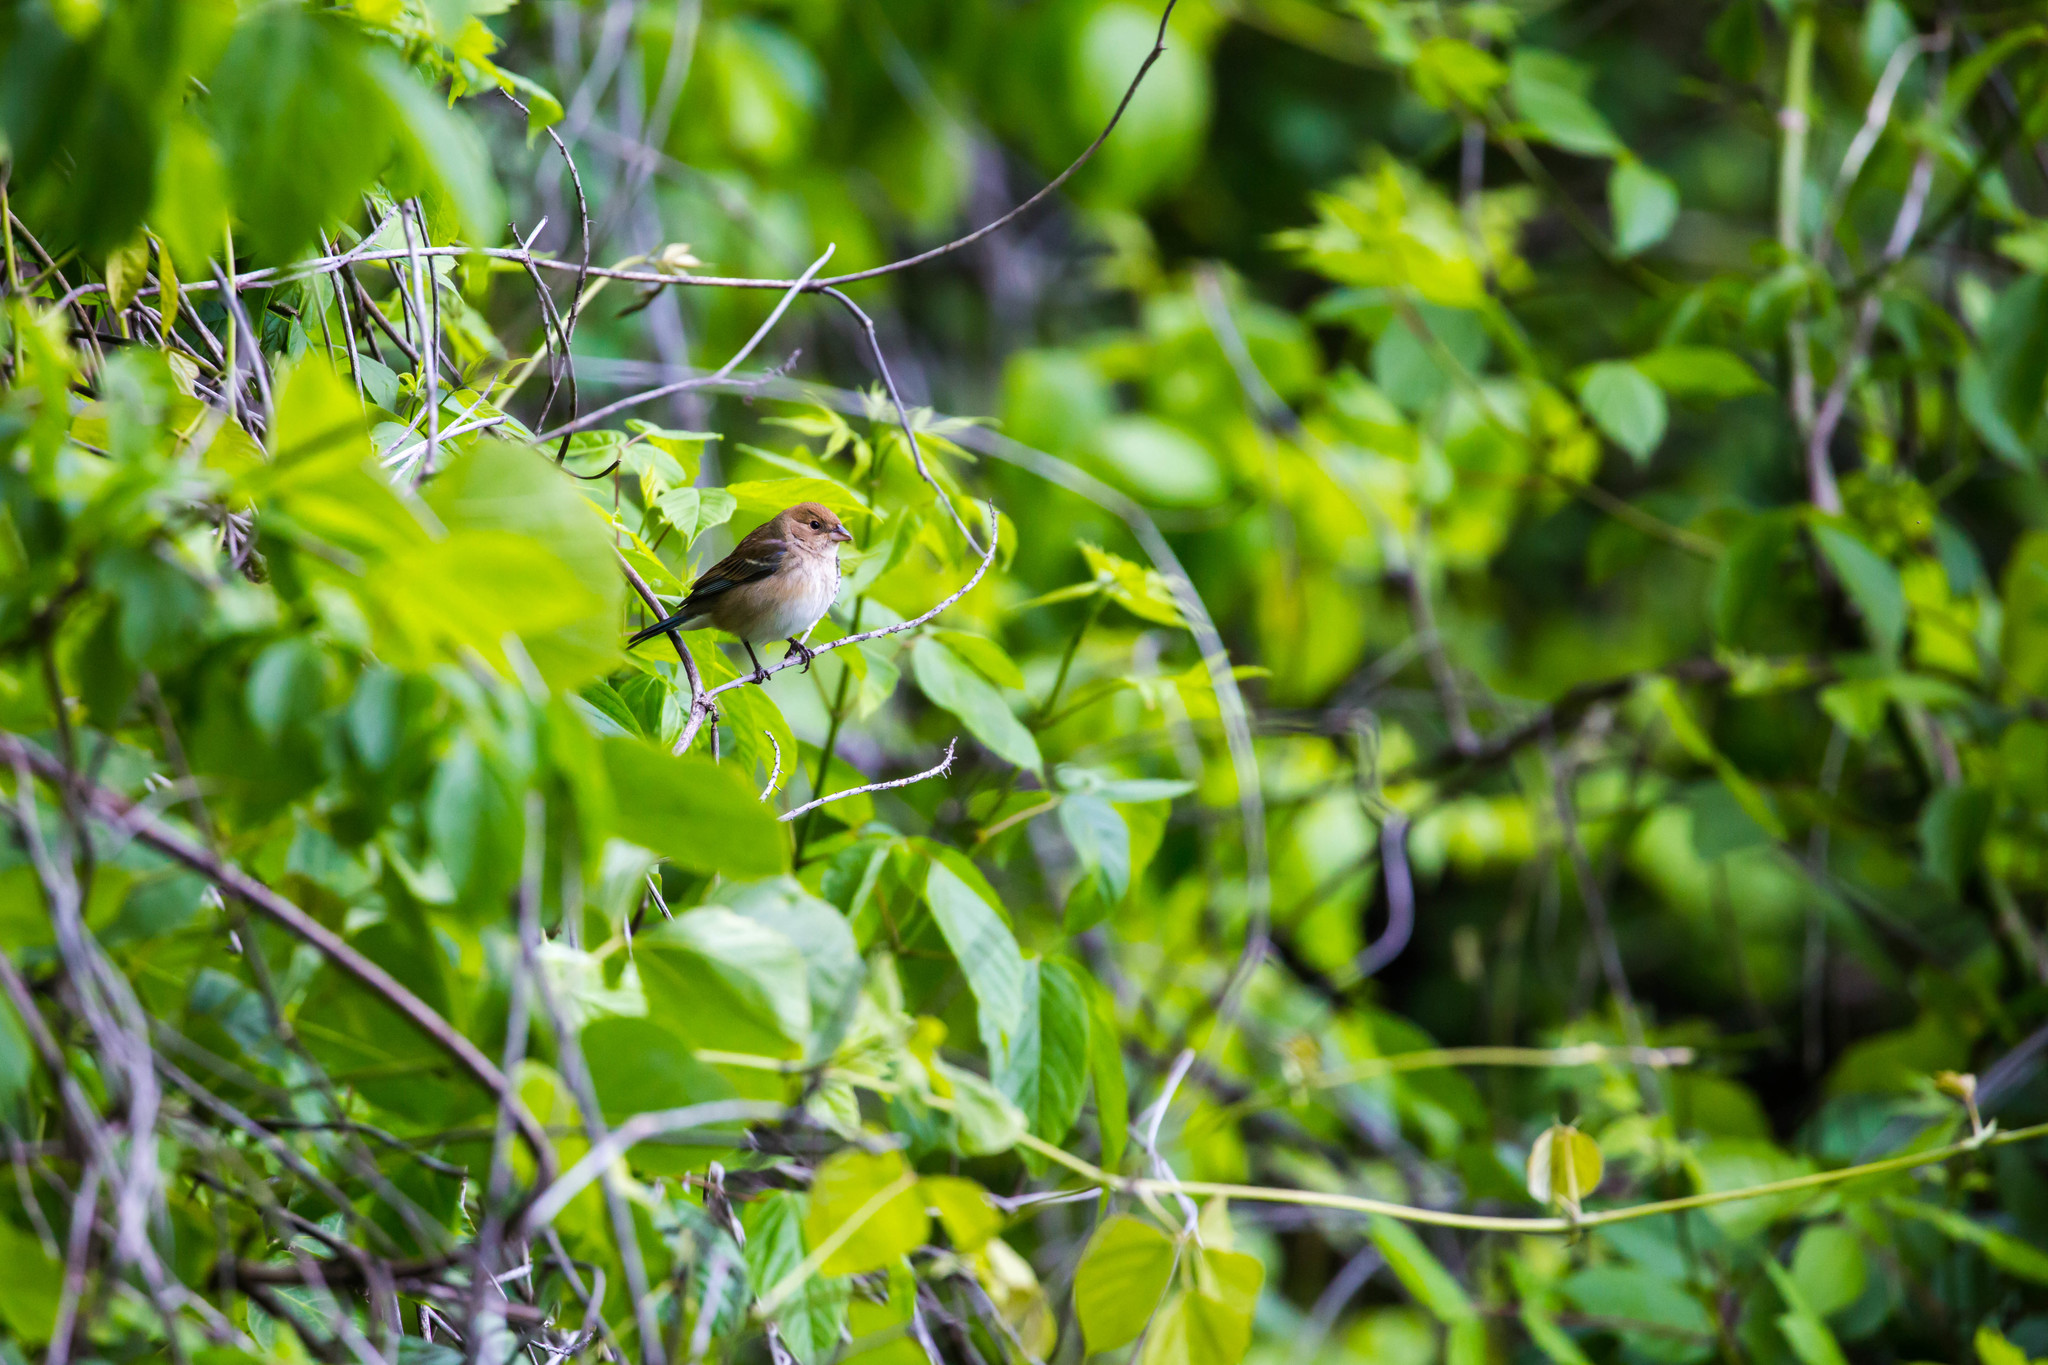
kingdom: Animalia
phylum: Chordata
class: Aves
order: Passeriformes
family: Cardinalidae
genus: Passerina
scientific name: Passerina cyanea
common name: Indigo bunting
